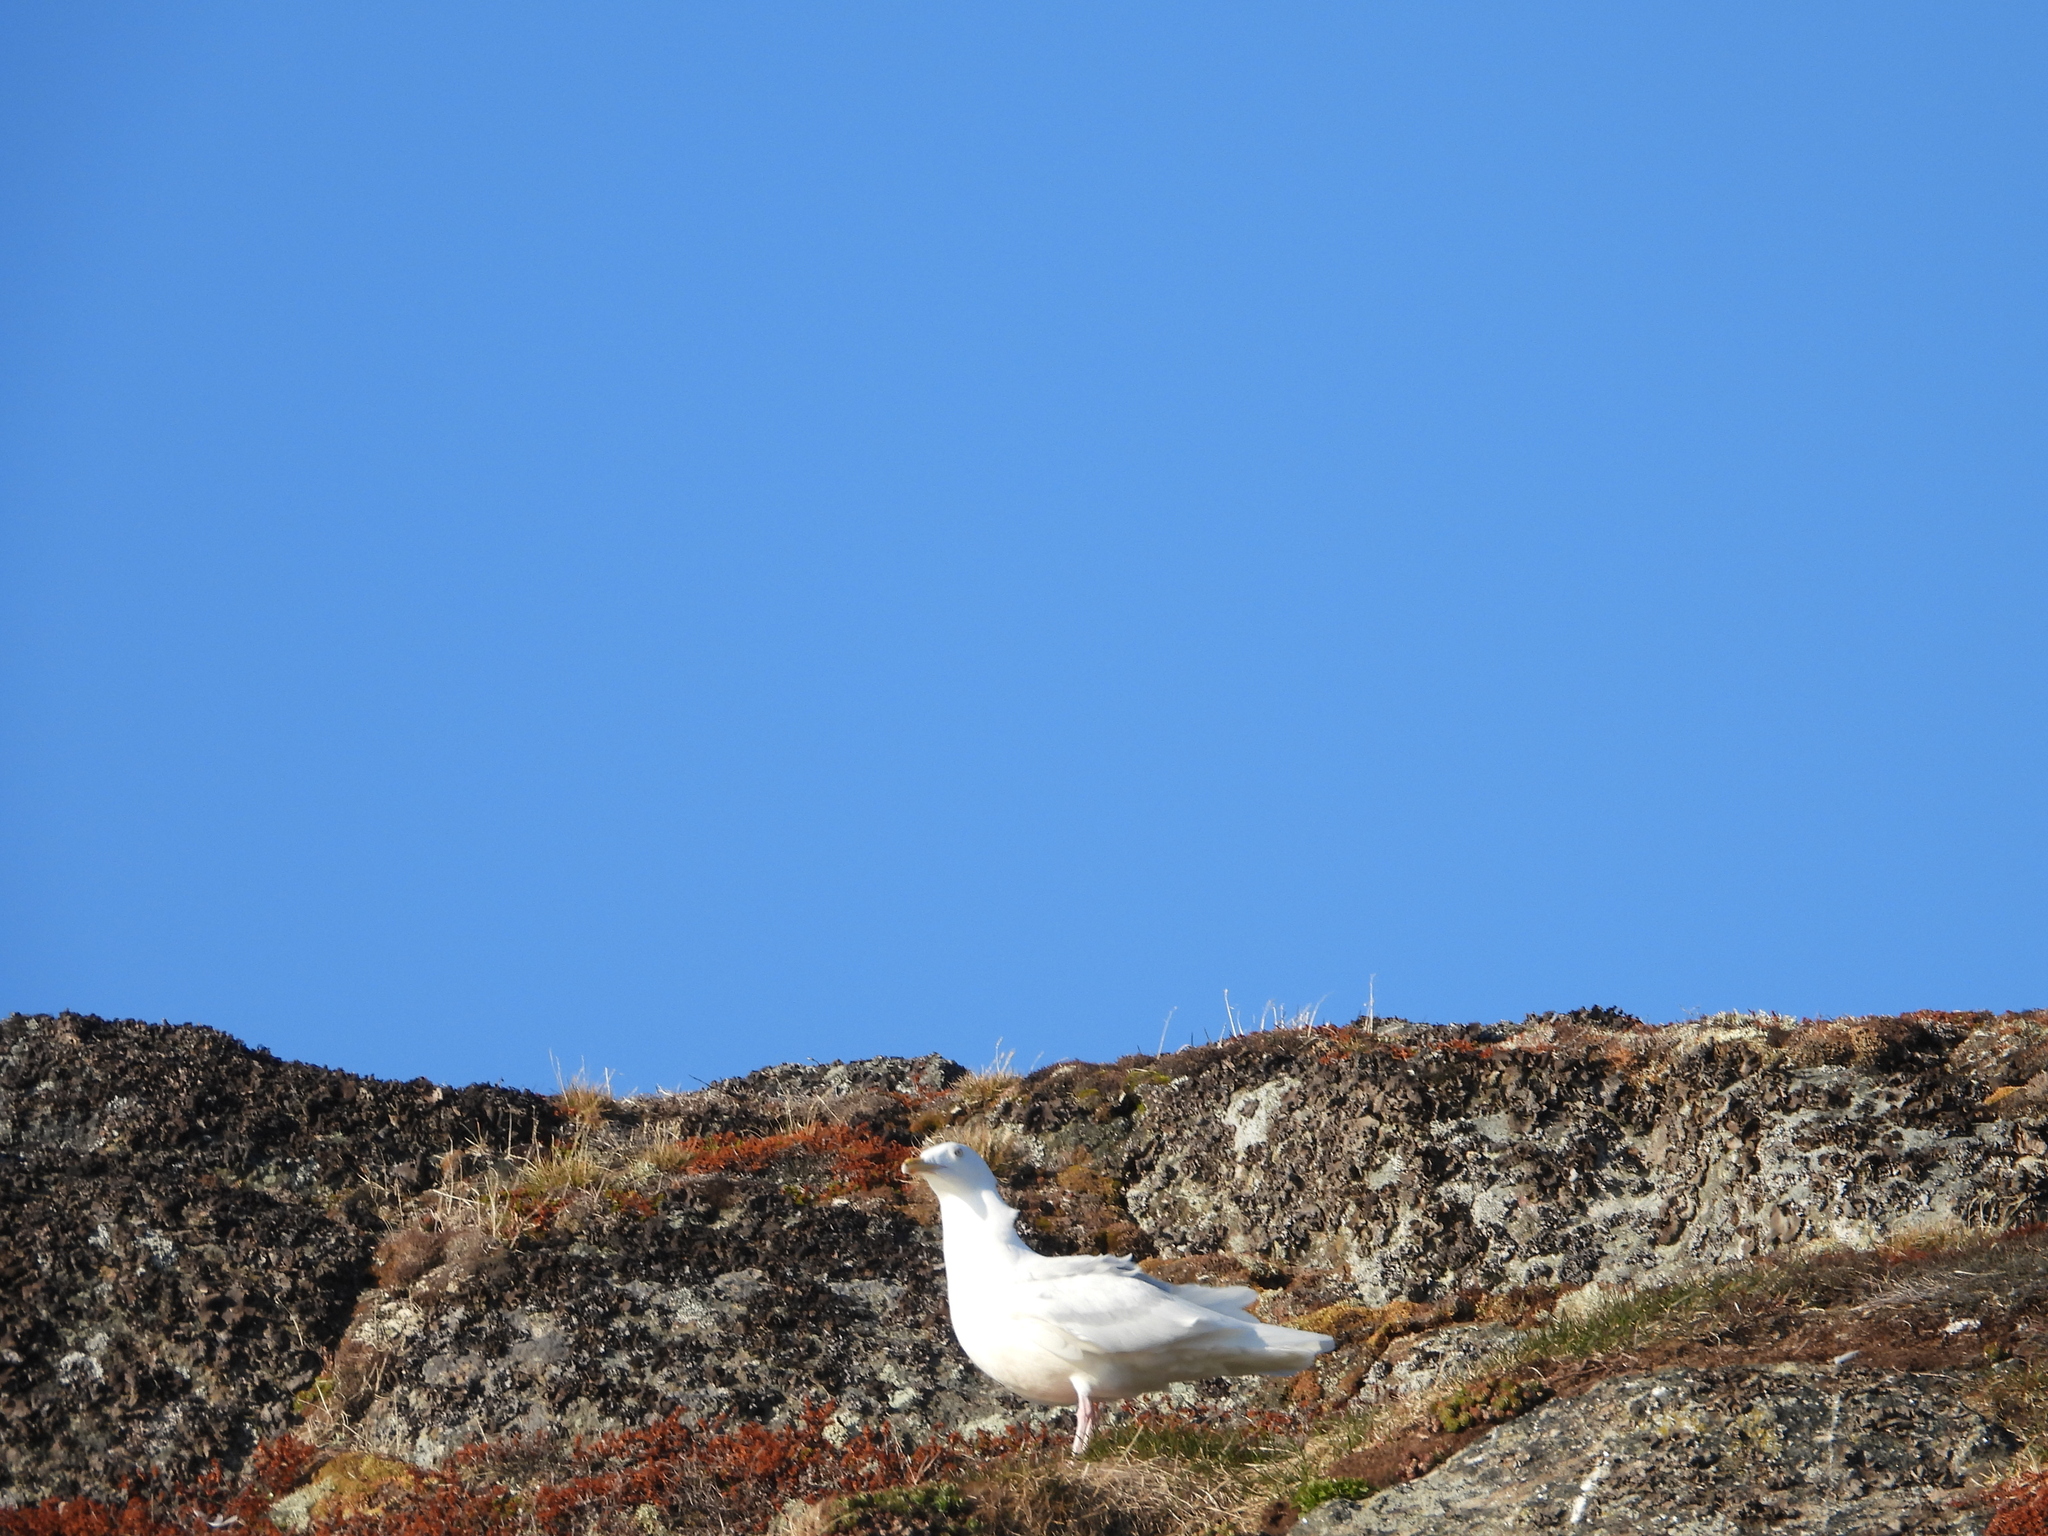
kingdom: Animalia
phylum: Chordata
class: Aves
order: Charadriiformes
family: Laridae
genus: Larus
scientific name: Larus hyperboreus
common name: Glaucous gull
